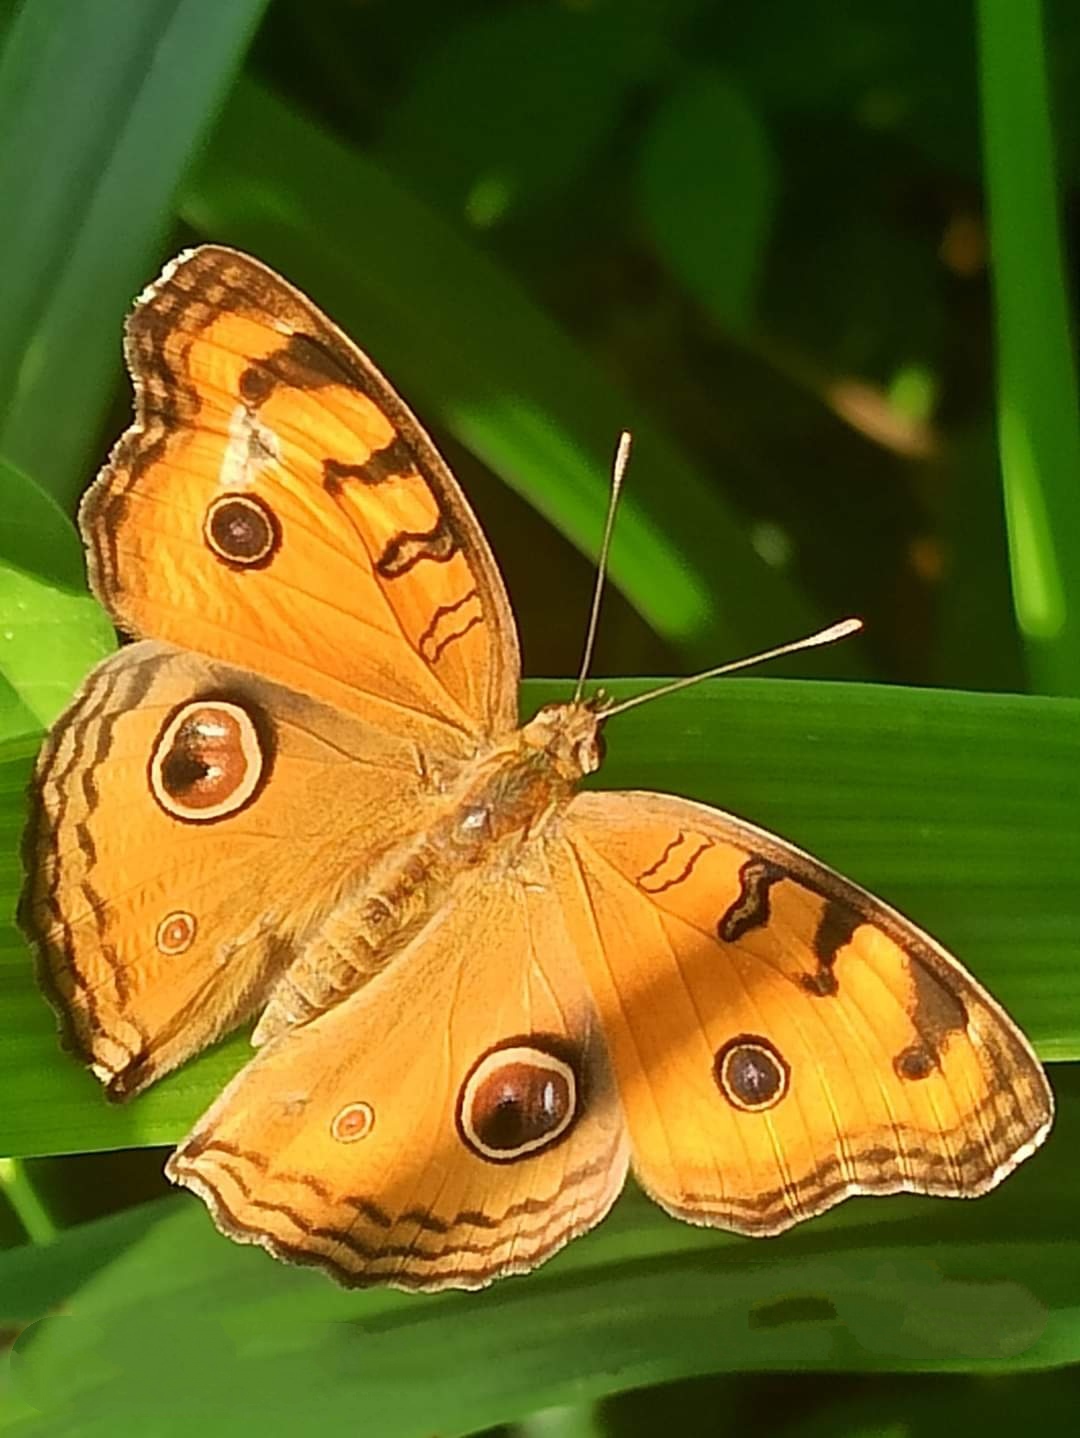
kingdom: Animalia
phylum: Arthropoda
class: Insecta
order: Lepidoptera
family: Nymphalidae
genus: Junonia
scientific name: Junonia almana
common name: Peacock pansy
